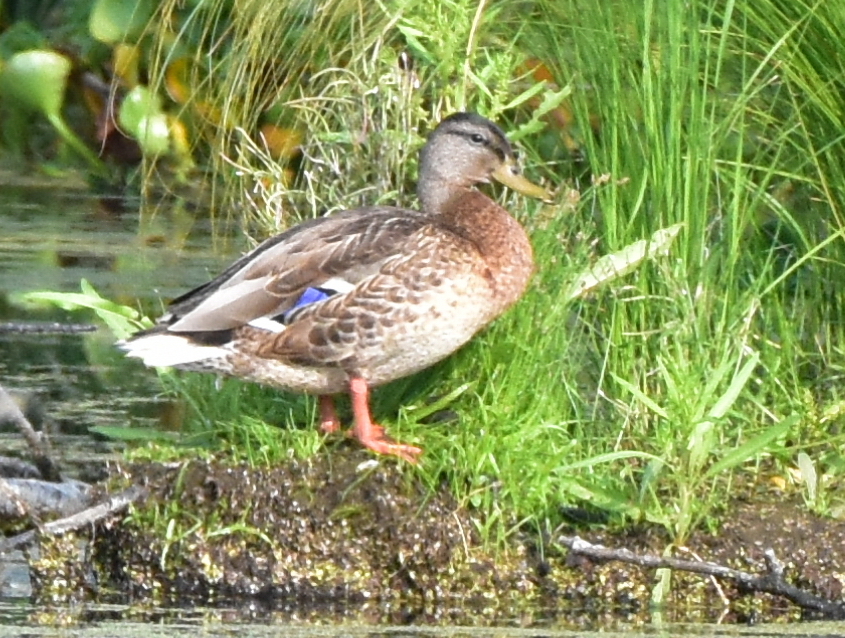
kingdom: Animalia
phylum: Chordata
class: Aves
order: Anseriformes
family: Anatidae
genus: Anas
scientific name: Anas platyrhynchos
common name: Mallard
